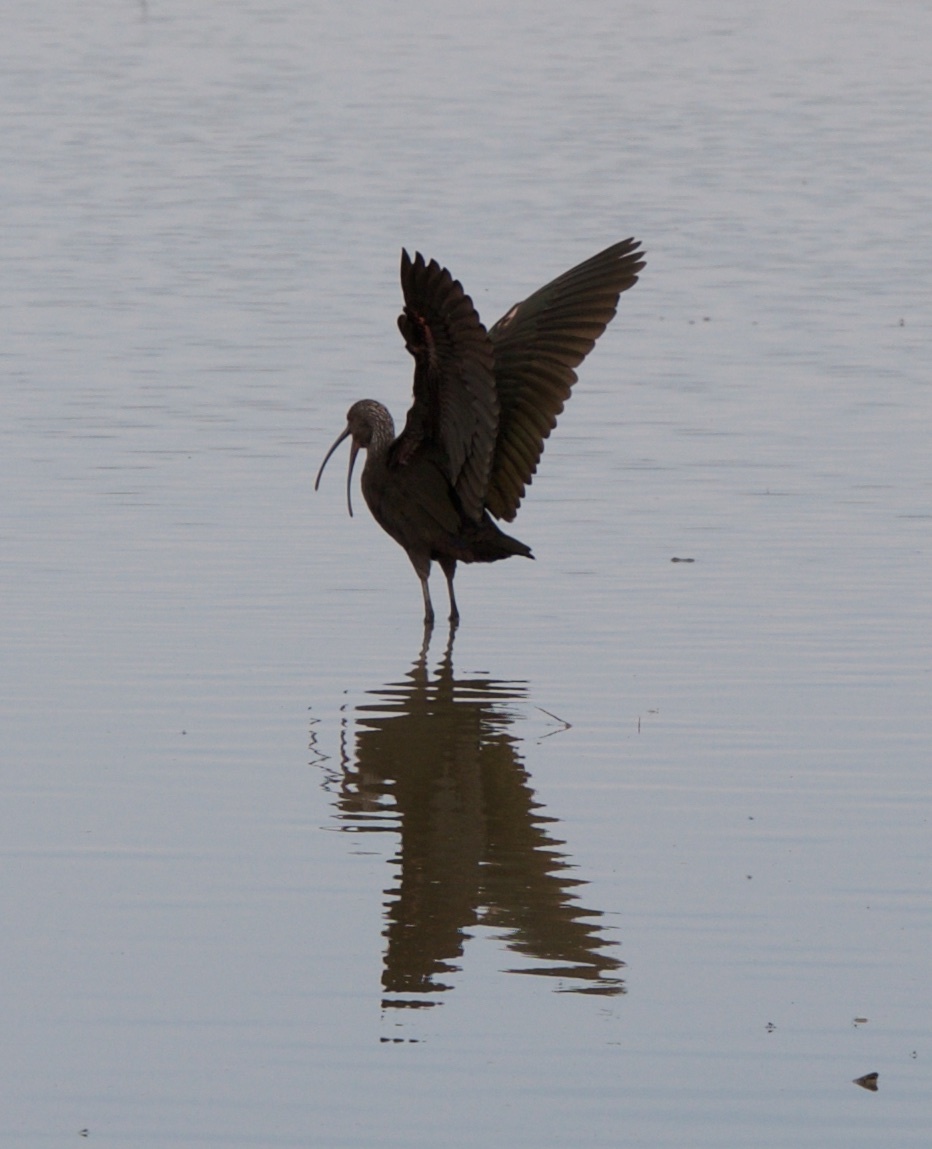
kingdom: Animalia
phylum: Chordata
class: Aves
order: Pelecaniformes
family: Threskiornithidae
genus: Plegadis
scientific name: Plegadis chihi
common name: White-faced ibis
